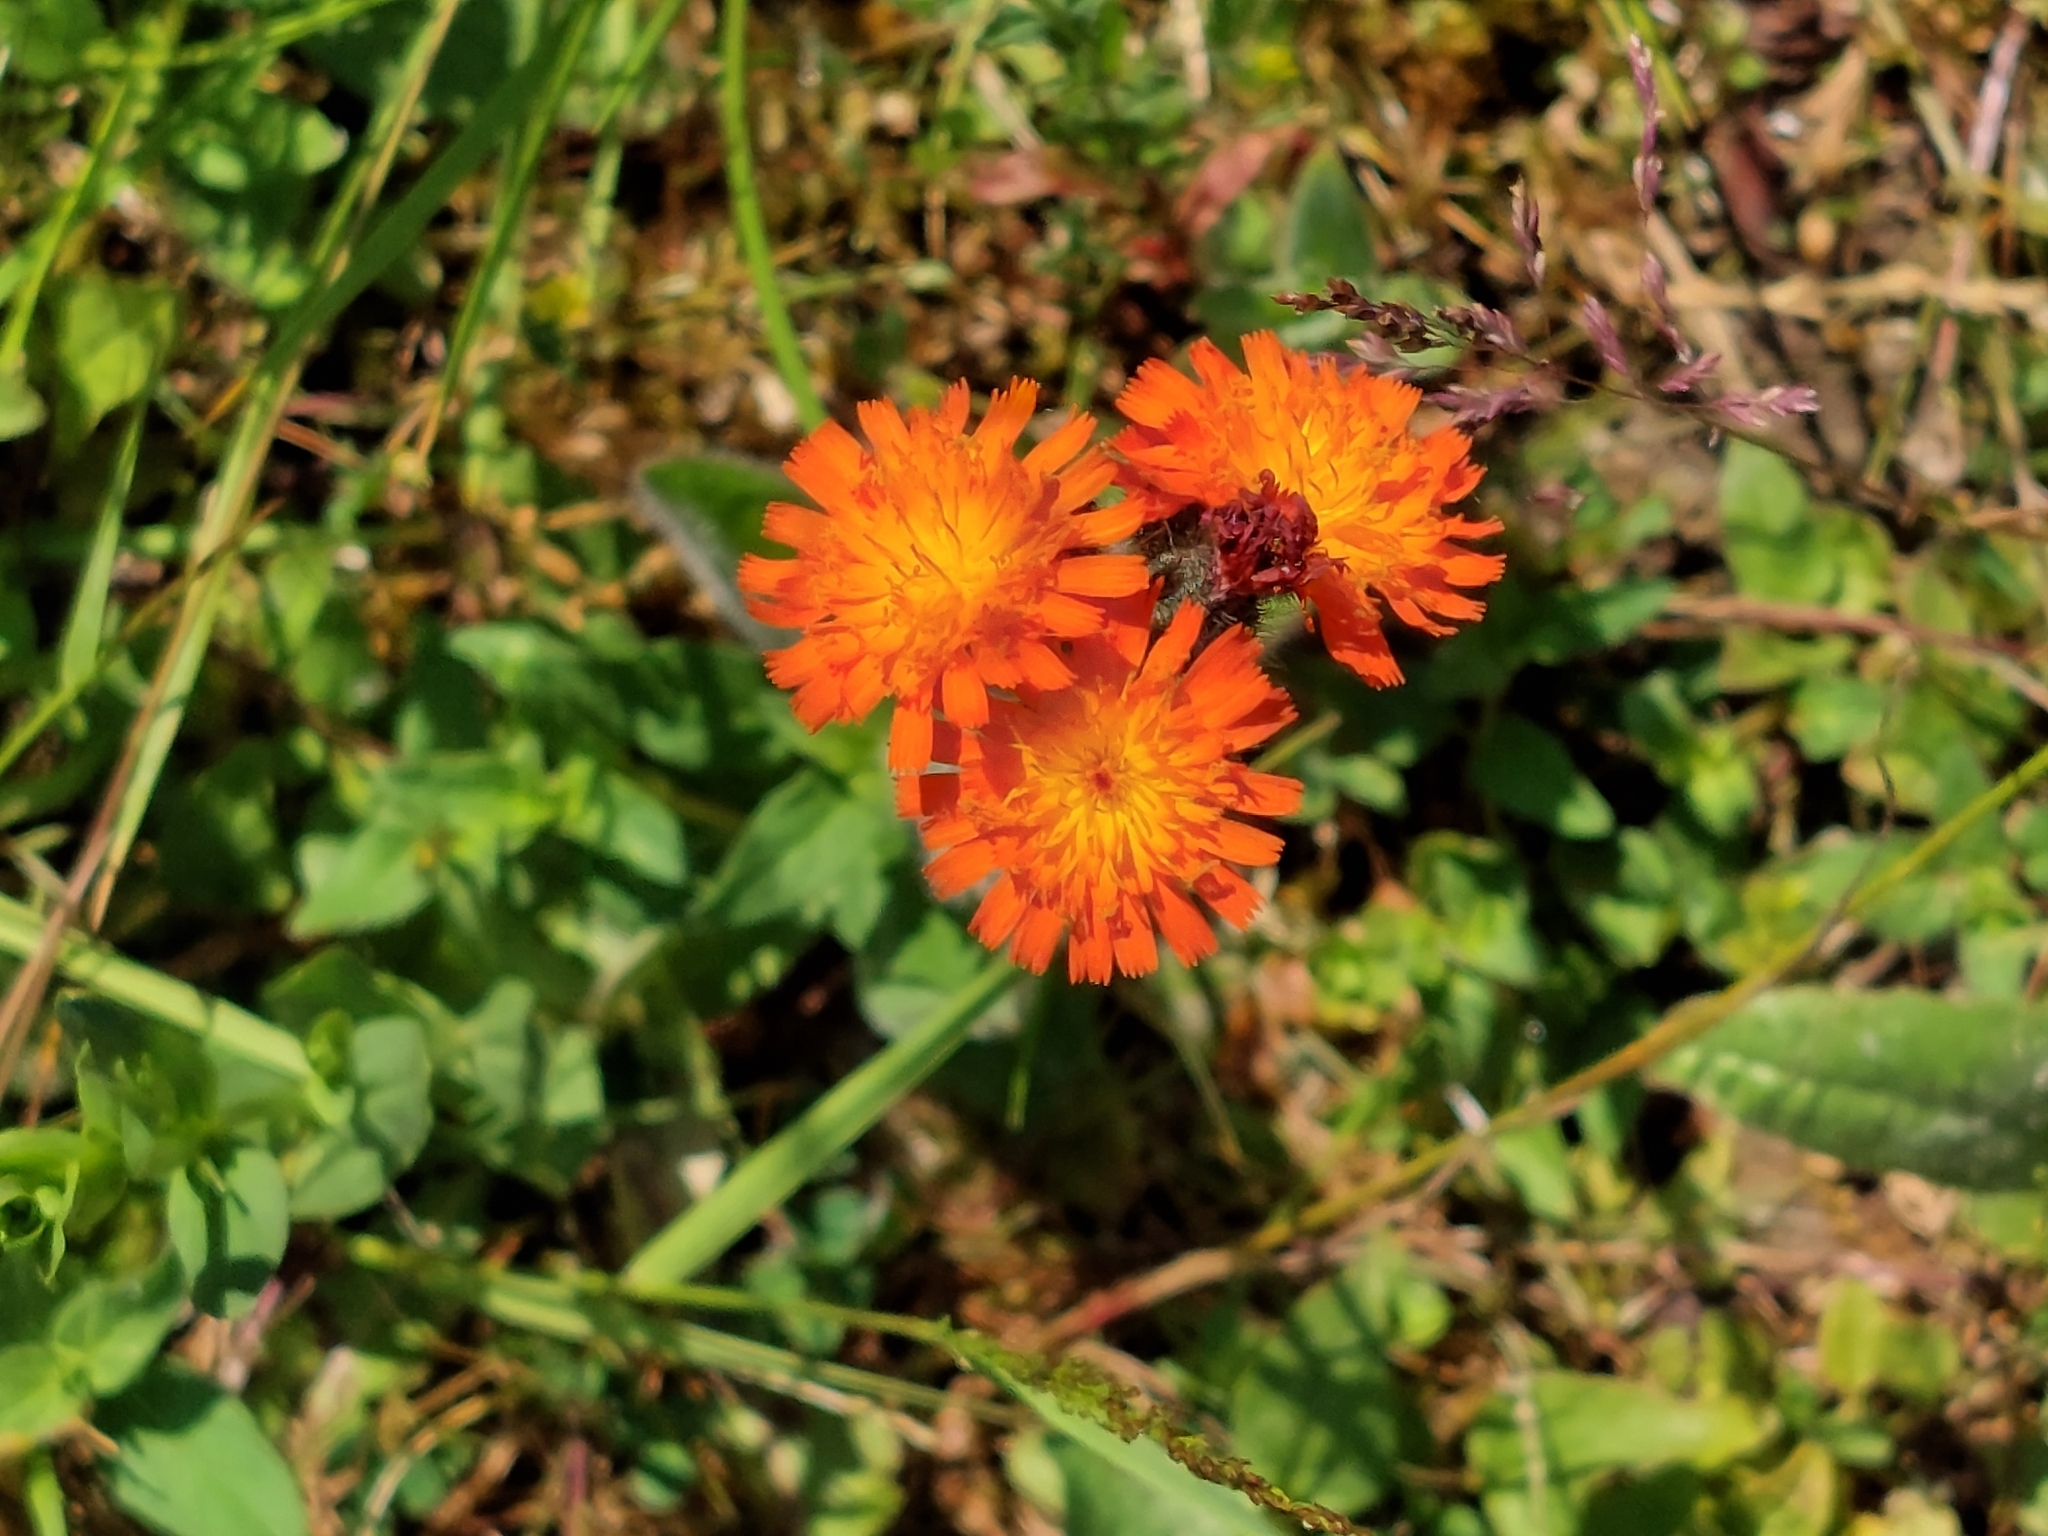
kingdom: Plantae
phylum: Tracheophyta
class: Magnoliopsida
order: Asterales
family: Asteraceae
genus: Pilosella
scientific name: Pilosella aurantiaca
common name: Fox-and-cubs
